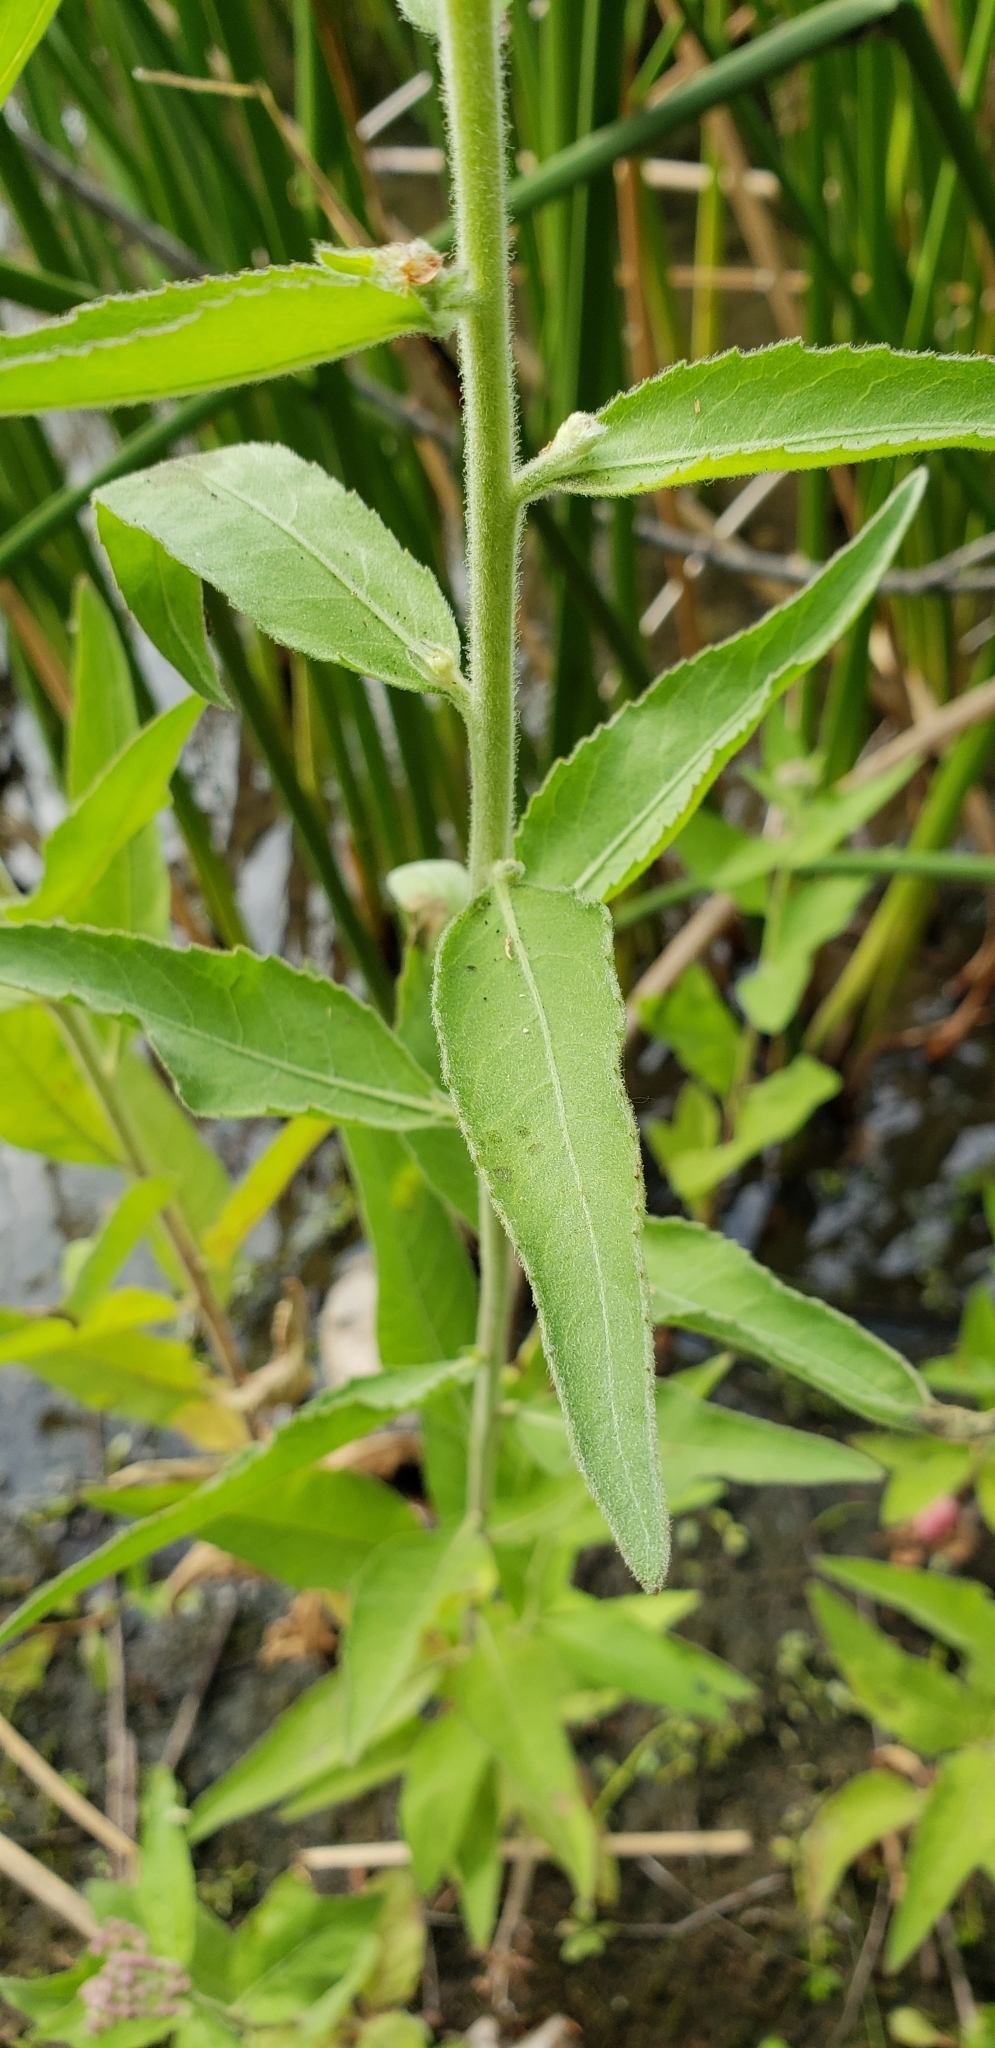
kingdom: Plantae
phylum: Tracheophyta
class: Magnoliopsida
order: Asterales
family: Asteraceae
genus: Pluchea
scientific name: Pluchea odorata
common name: Saltmarsh fleabane
